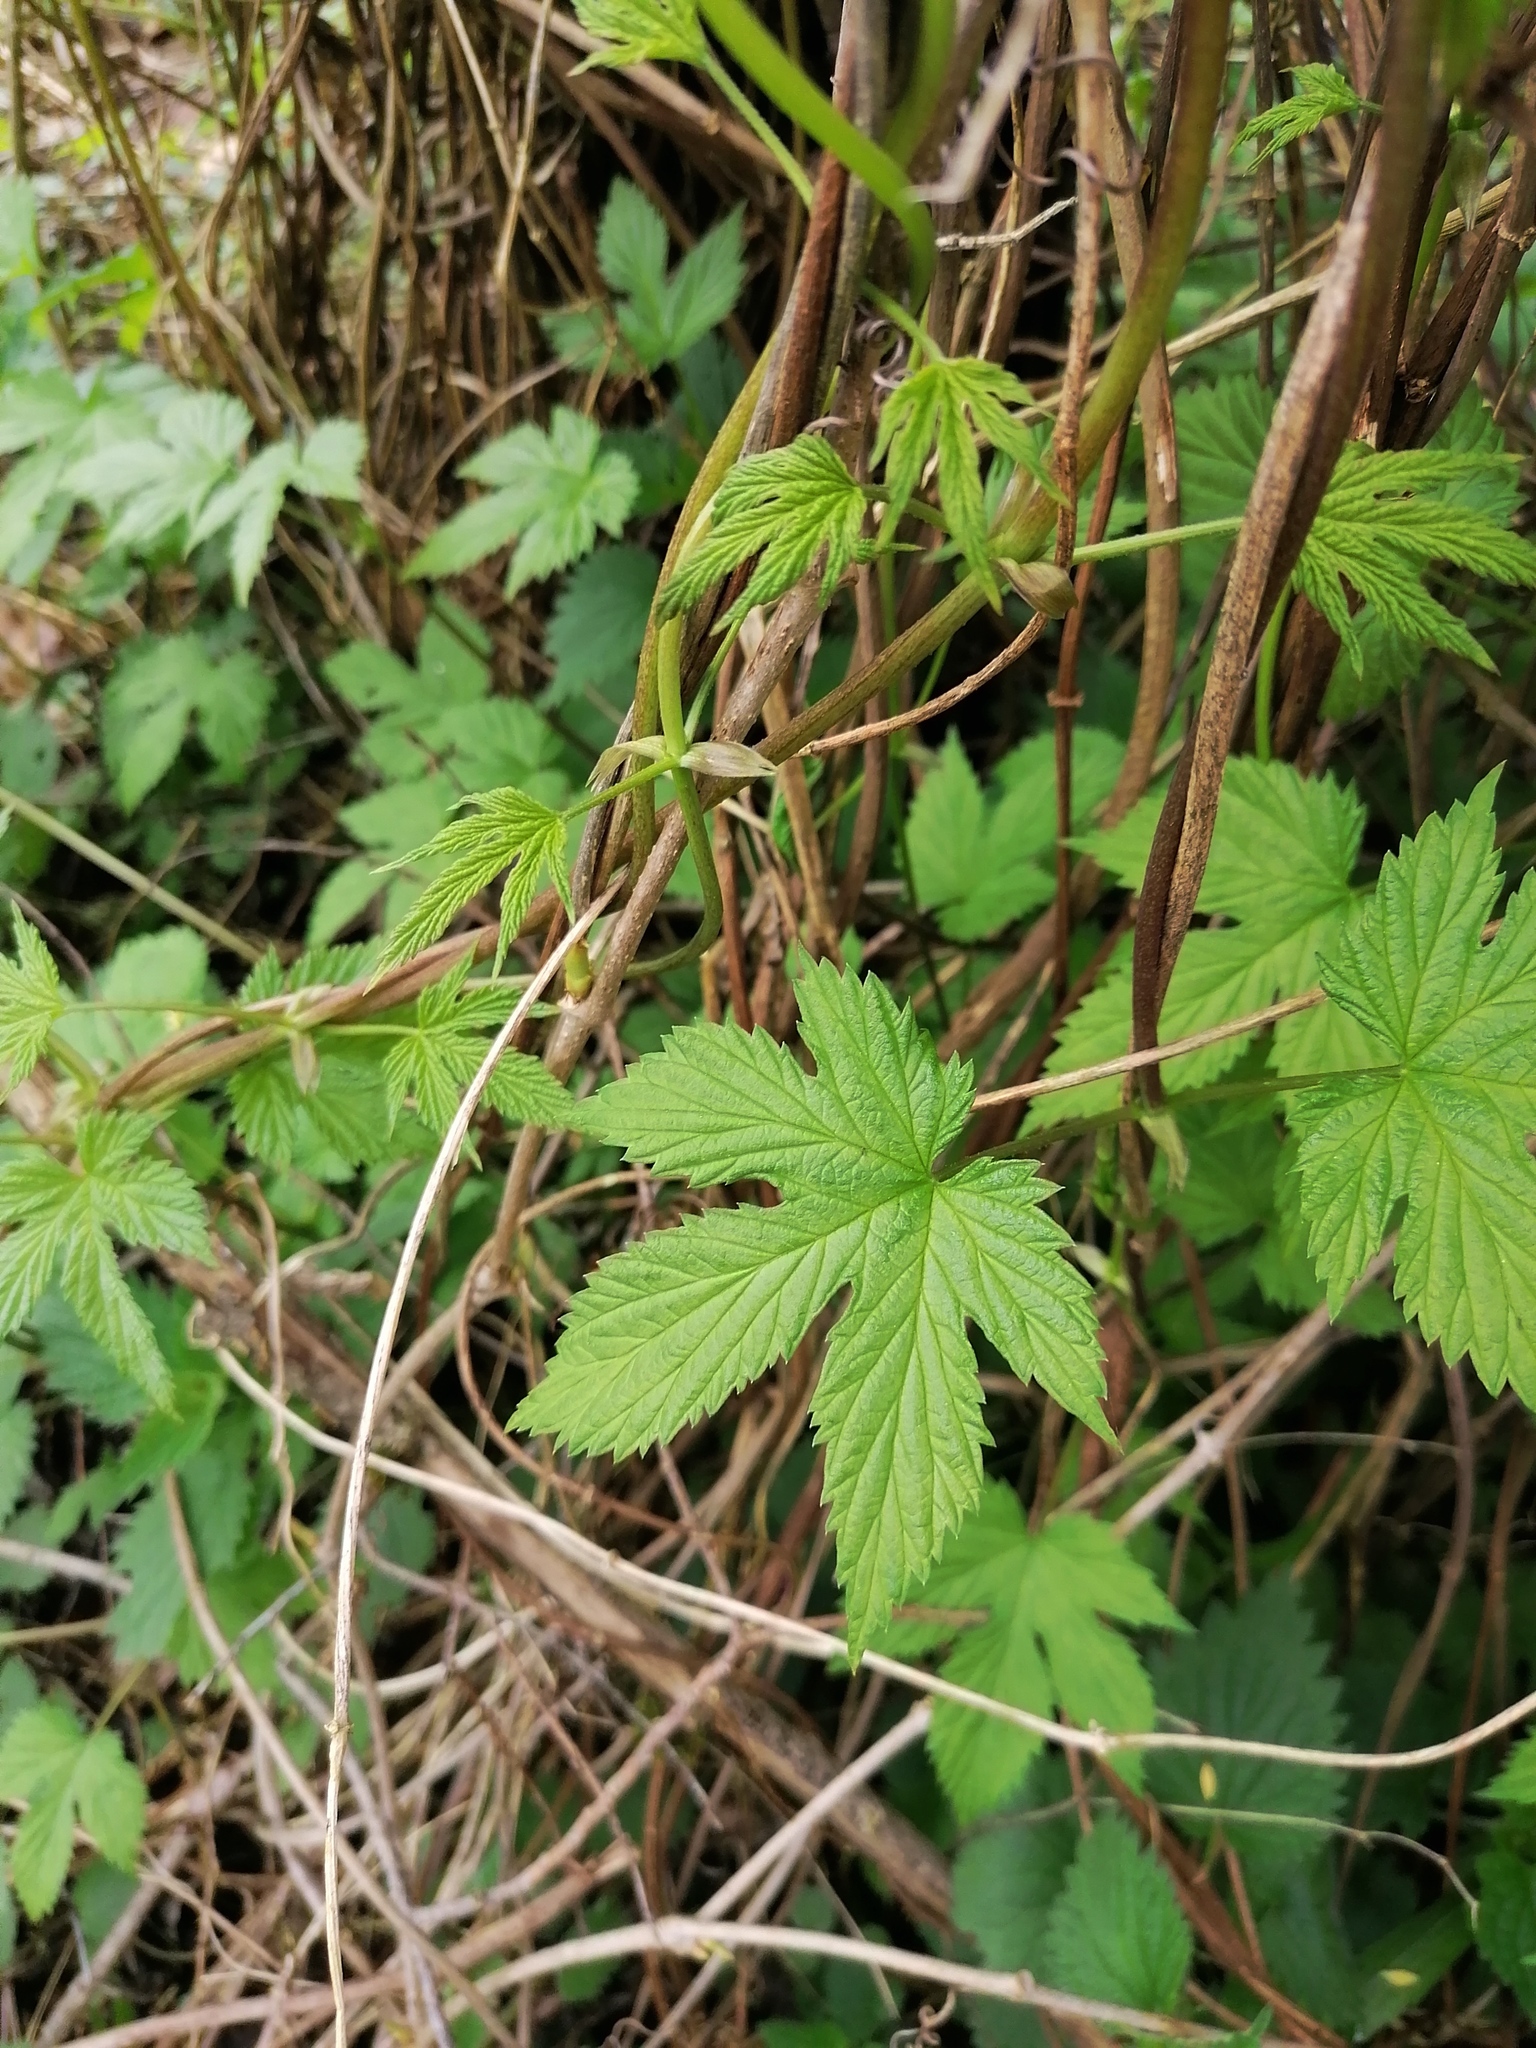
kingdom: Plantae
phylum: Tracheophyta
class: Magnoliopsida
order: Rosales
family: Cannabaceae
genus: Humulus
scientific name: Humulus lupulus
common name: Hop
